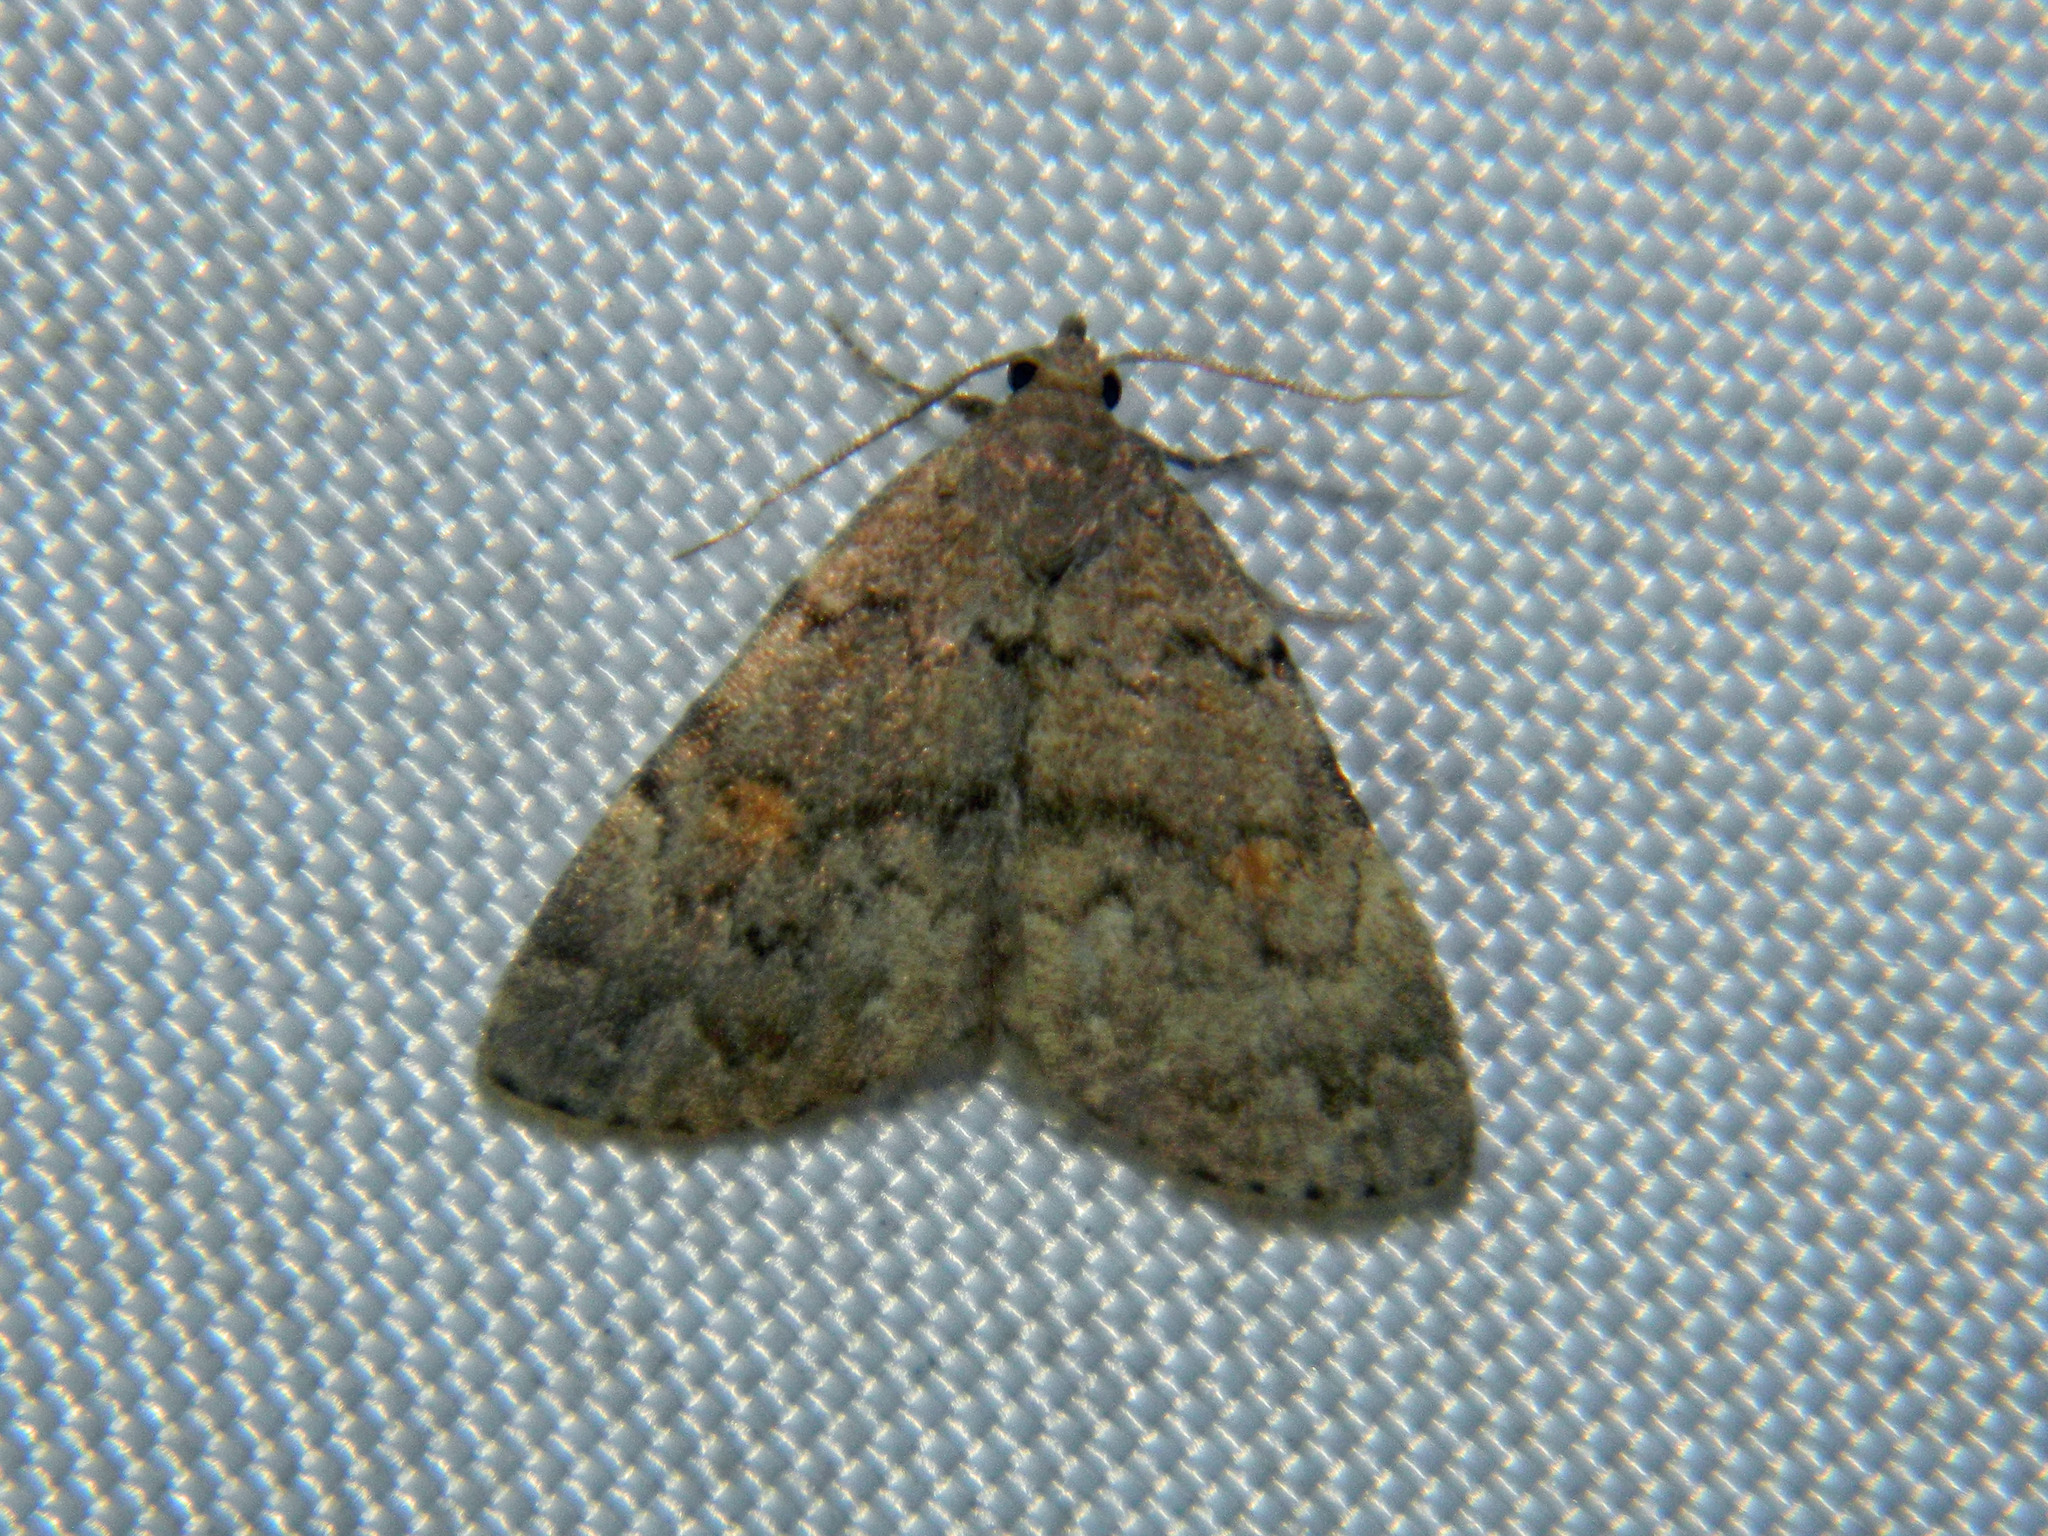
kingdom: Animalia
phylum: Arthropoda
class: Insecta
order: Lepidoptera
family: Erebidae
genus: Idia
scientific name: Idia aemula
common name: Common idia moth
